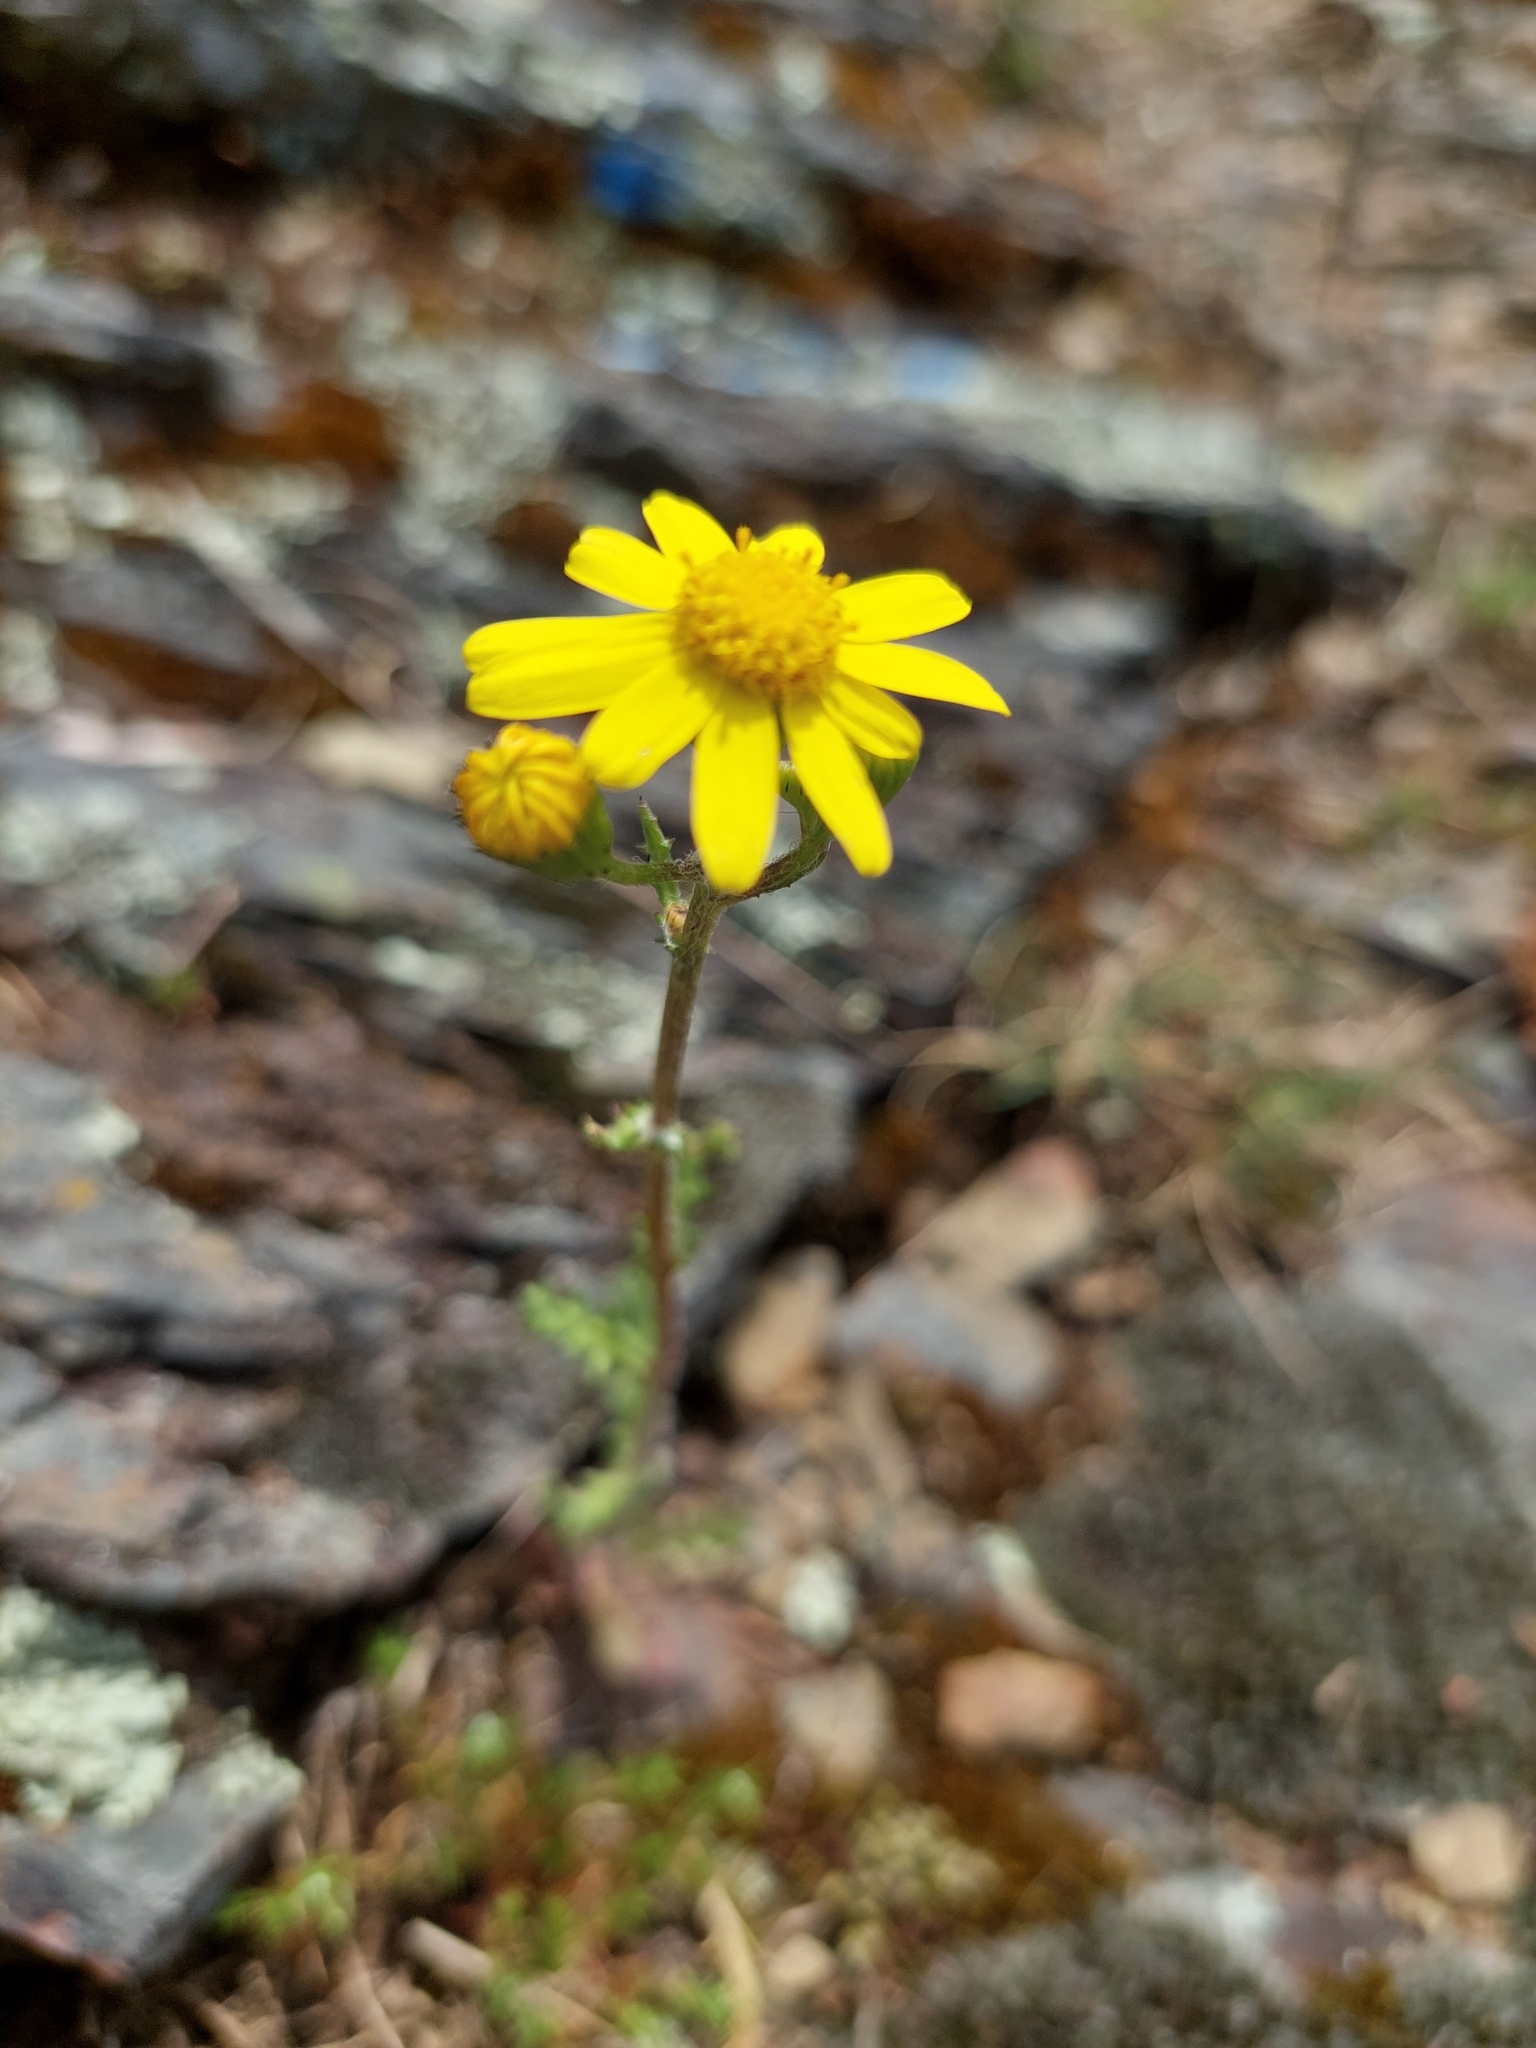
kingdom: Plantae
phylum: Tracheophyta
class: Magnoliopsida
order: Asterales
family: Asteraceae
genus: Senecio
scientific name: Senecio vernalis
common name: Eastern groundsel
